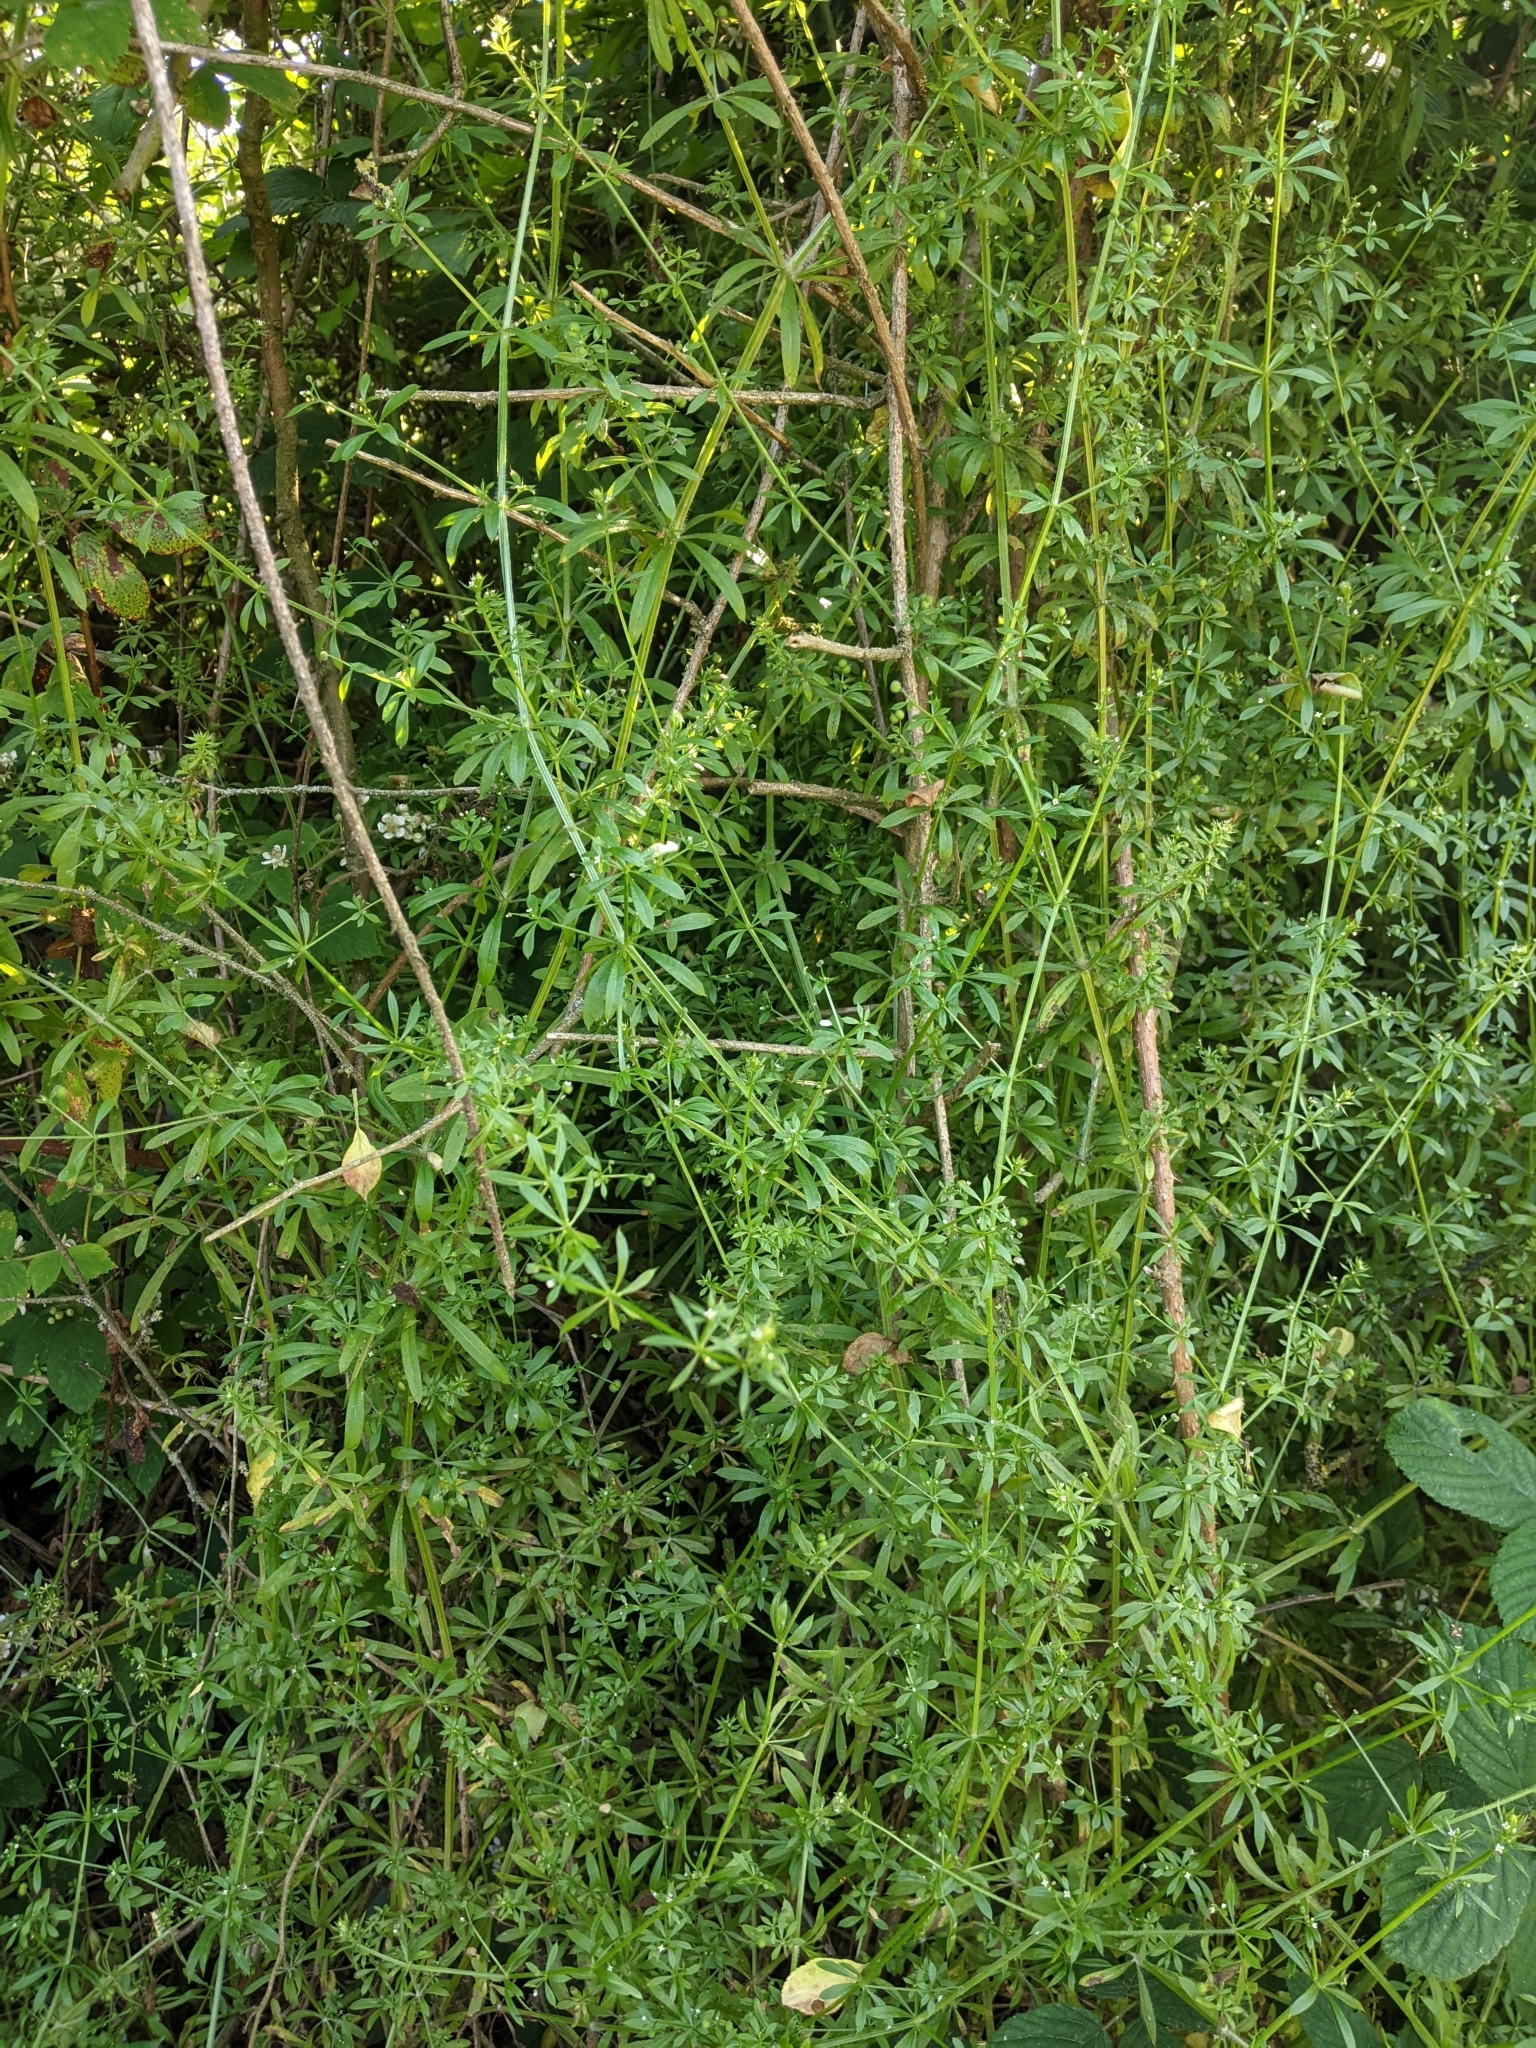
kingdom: Plantae
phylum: Tracheophyta
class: Magnoliopsida
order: Gentianales
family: Rubiaceae
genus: Galium
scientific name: Galium aparine
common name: Cleavers
